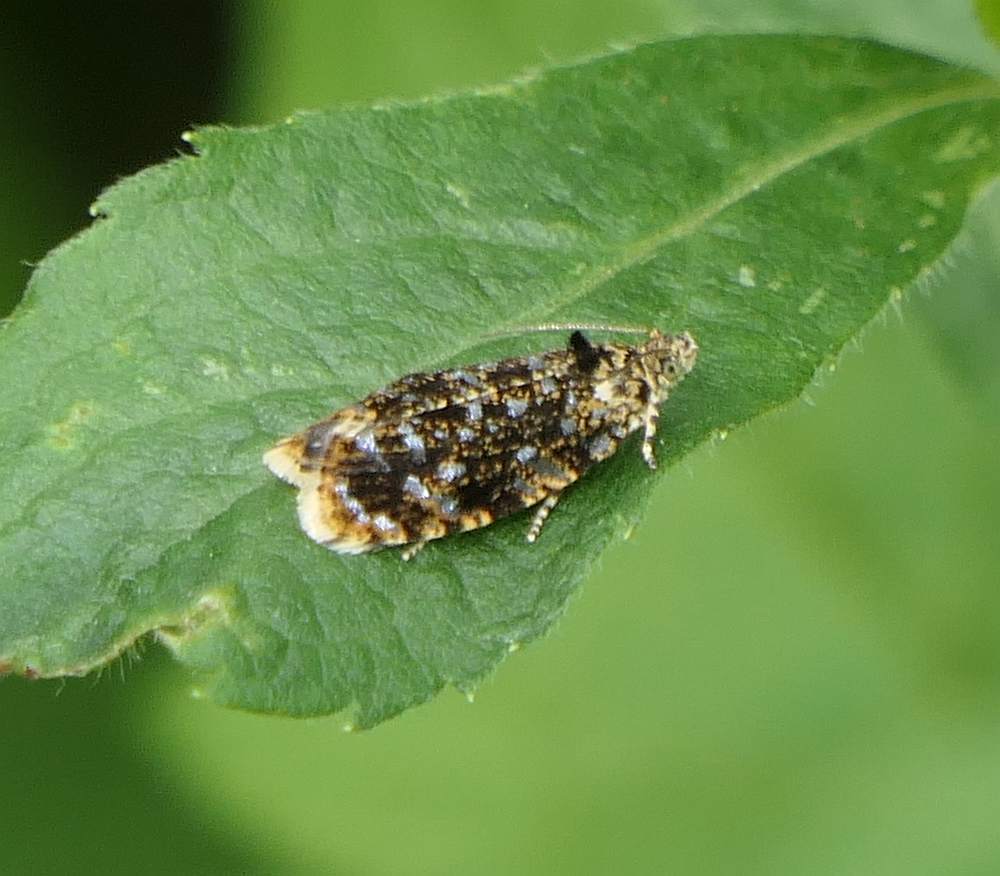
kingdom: Animalia
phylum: Arthropoda
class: Insecta
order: Lepidoptera
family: Tortricidae
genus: Olethreutes
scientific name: Olethreutes albiciliana
